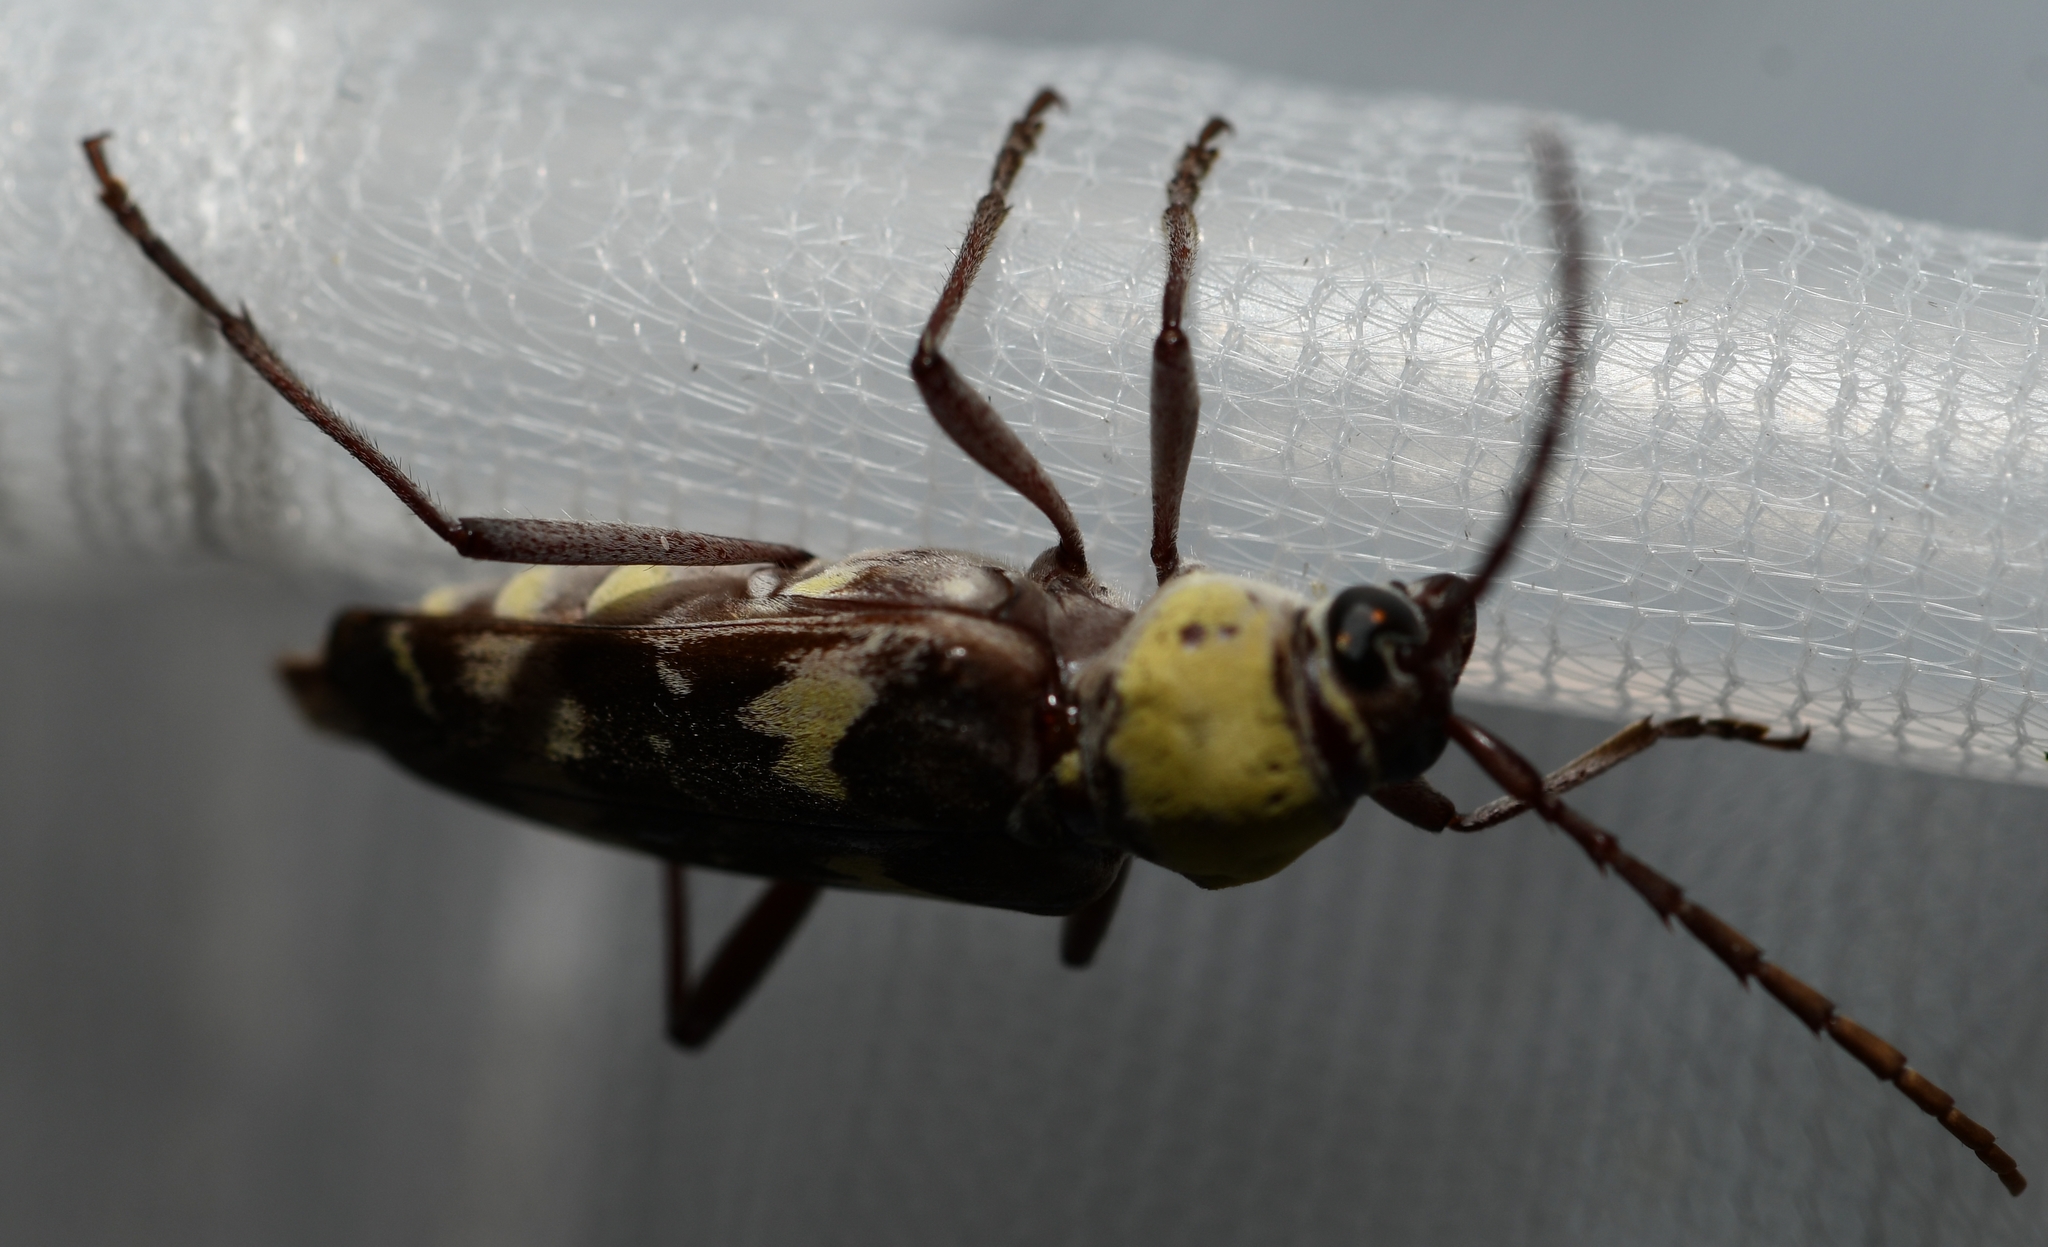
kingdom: Animalia
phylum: Arthropoda
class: Insecta
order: Coleoptera
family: Cerambycidae
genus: Megacyllene
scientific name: Megacyllene antennata
